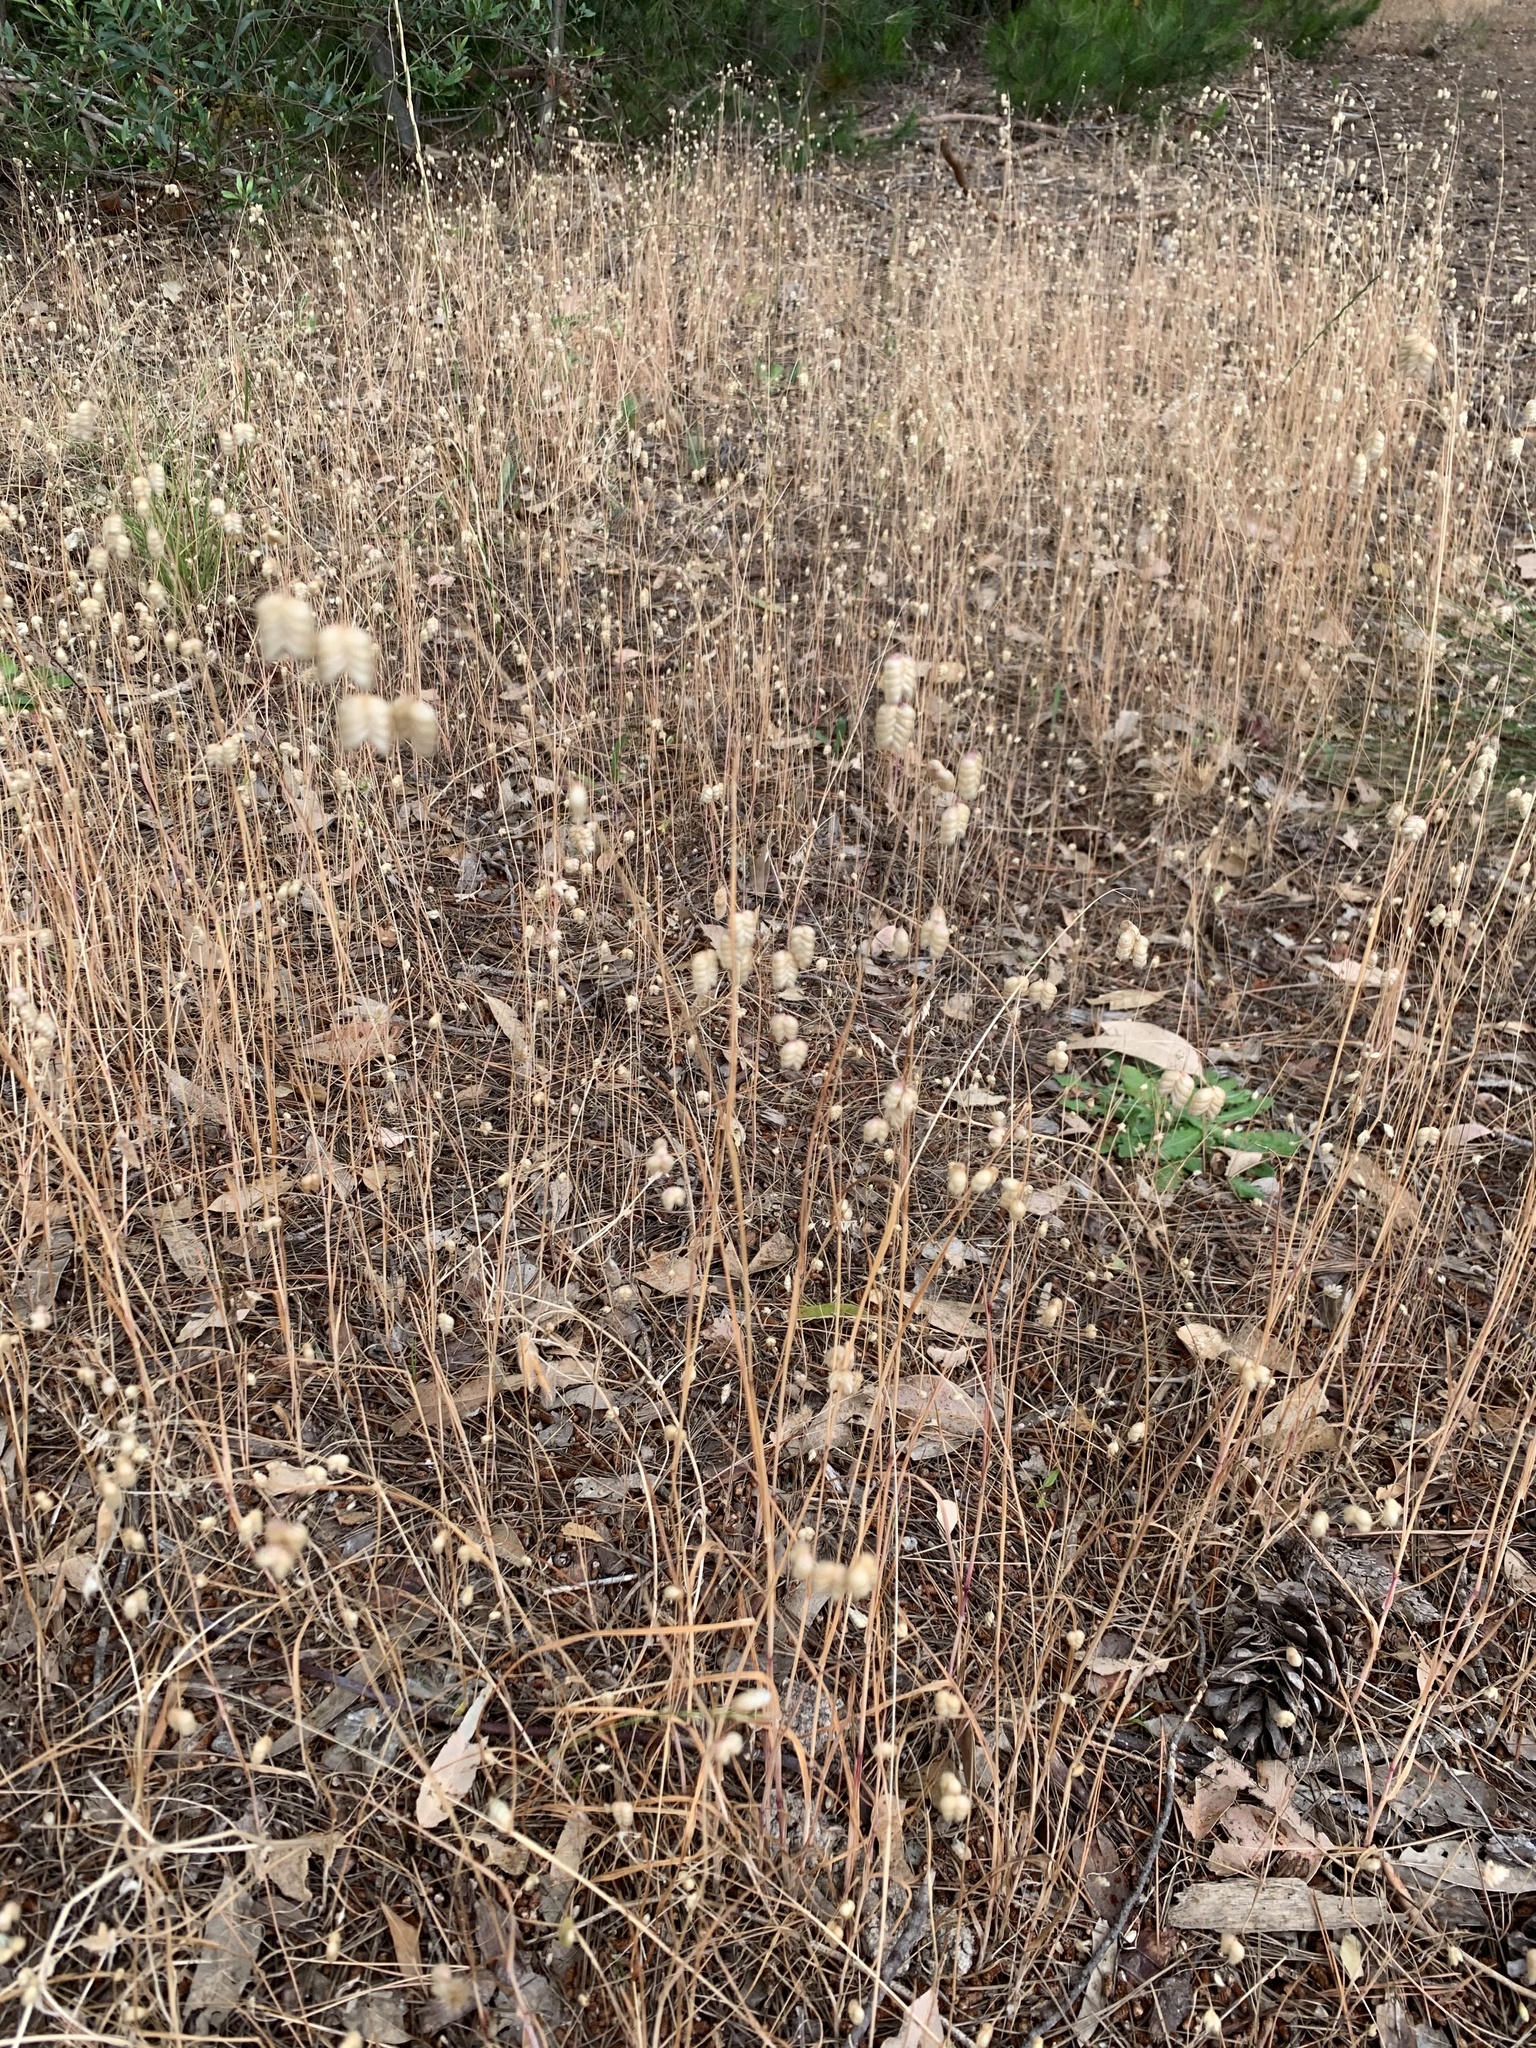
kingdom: Plantae
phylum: Tracheophyta
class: Liliopsida
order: Poales
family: Poaceae
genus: Briza
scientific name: Briza maxima
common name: Big quakinggrass
